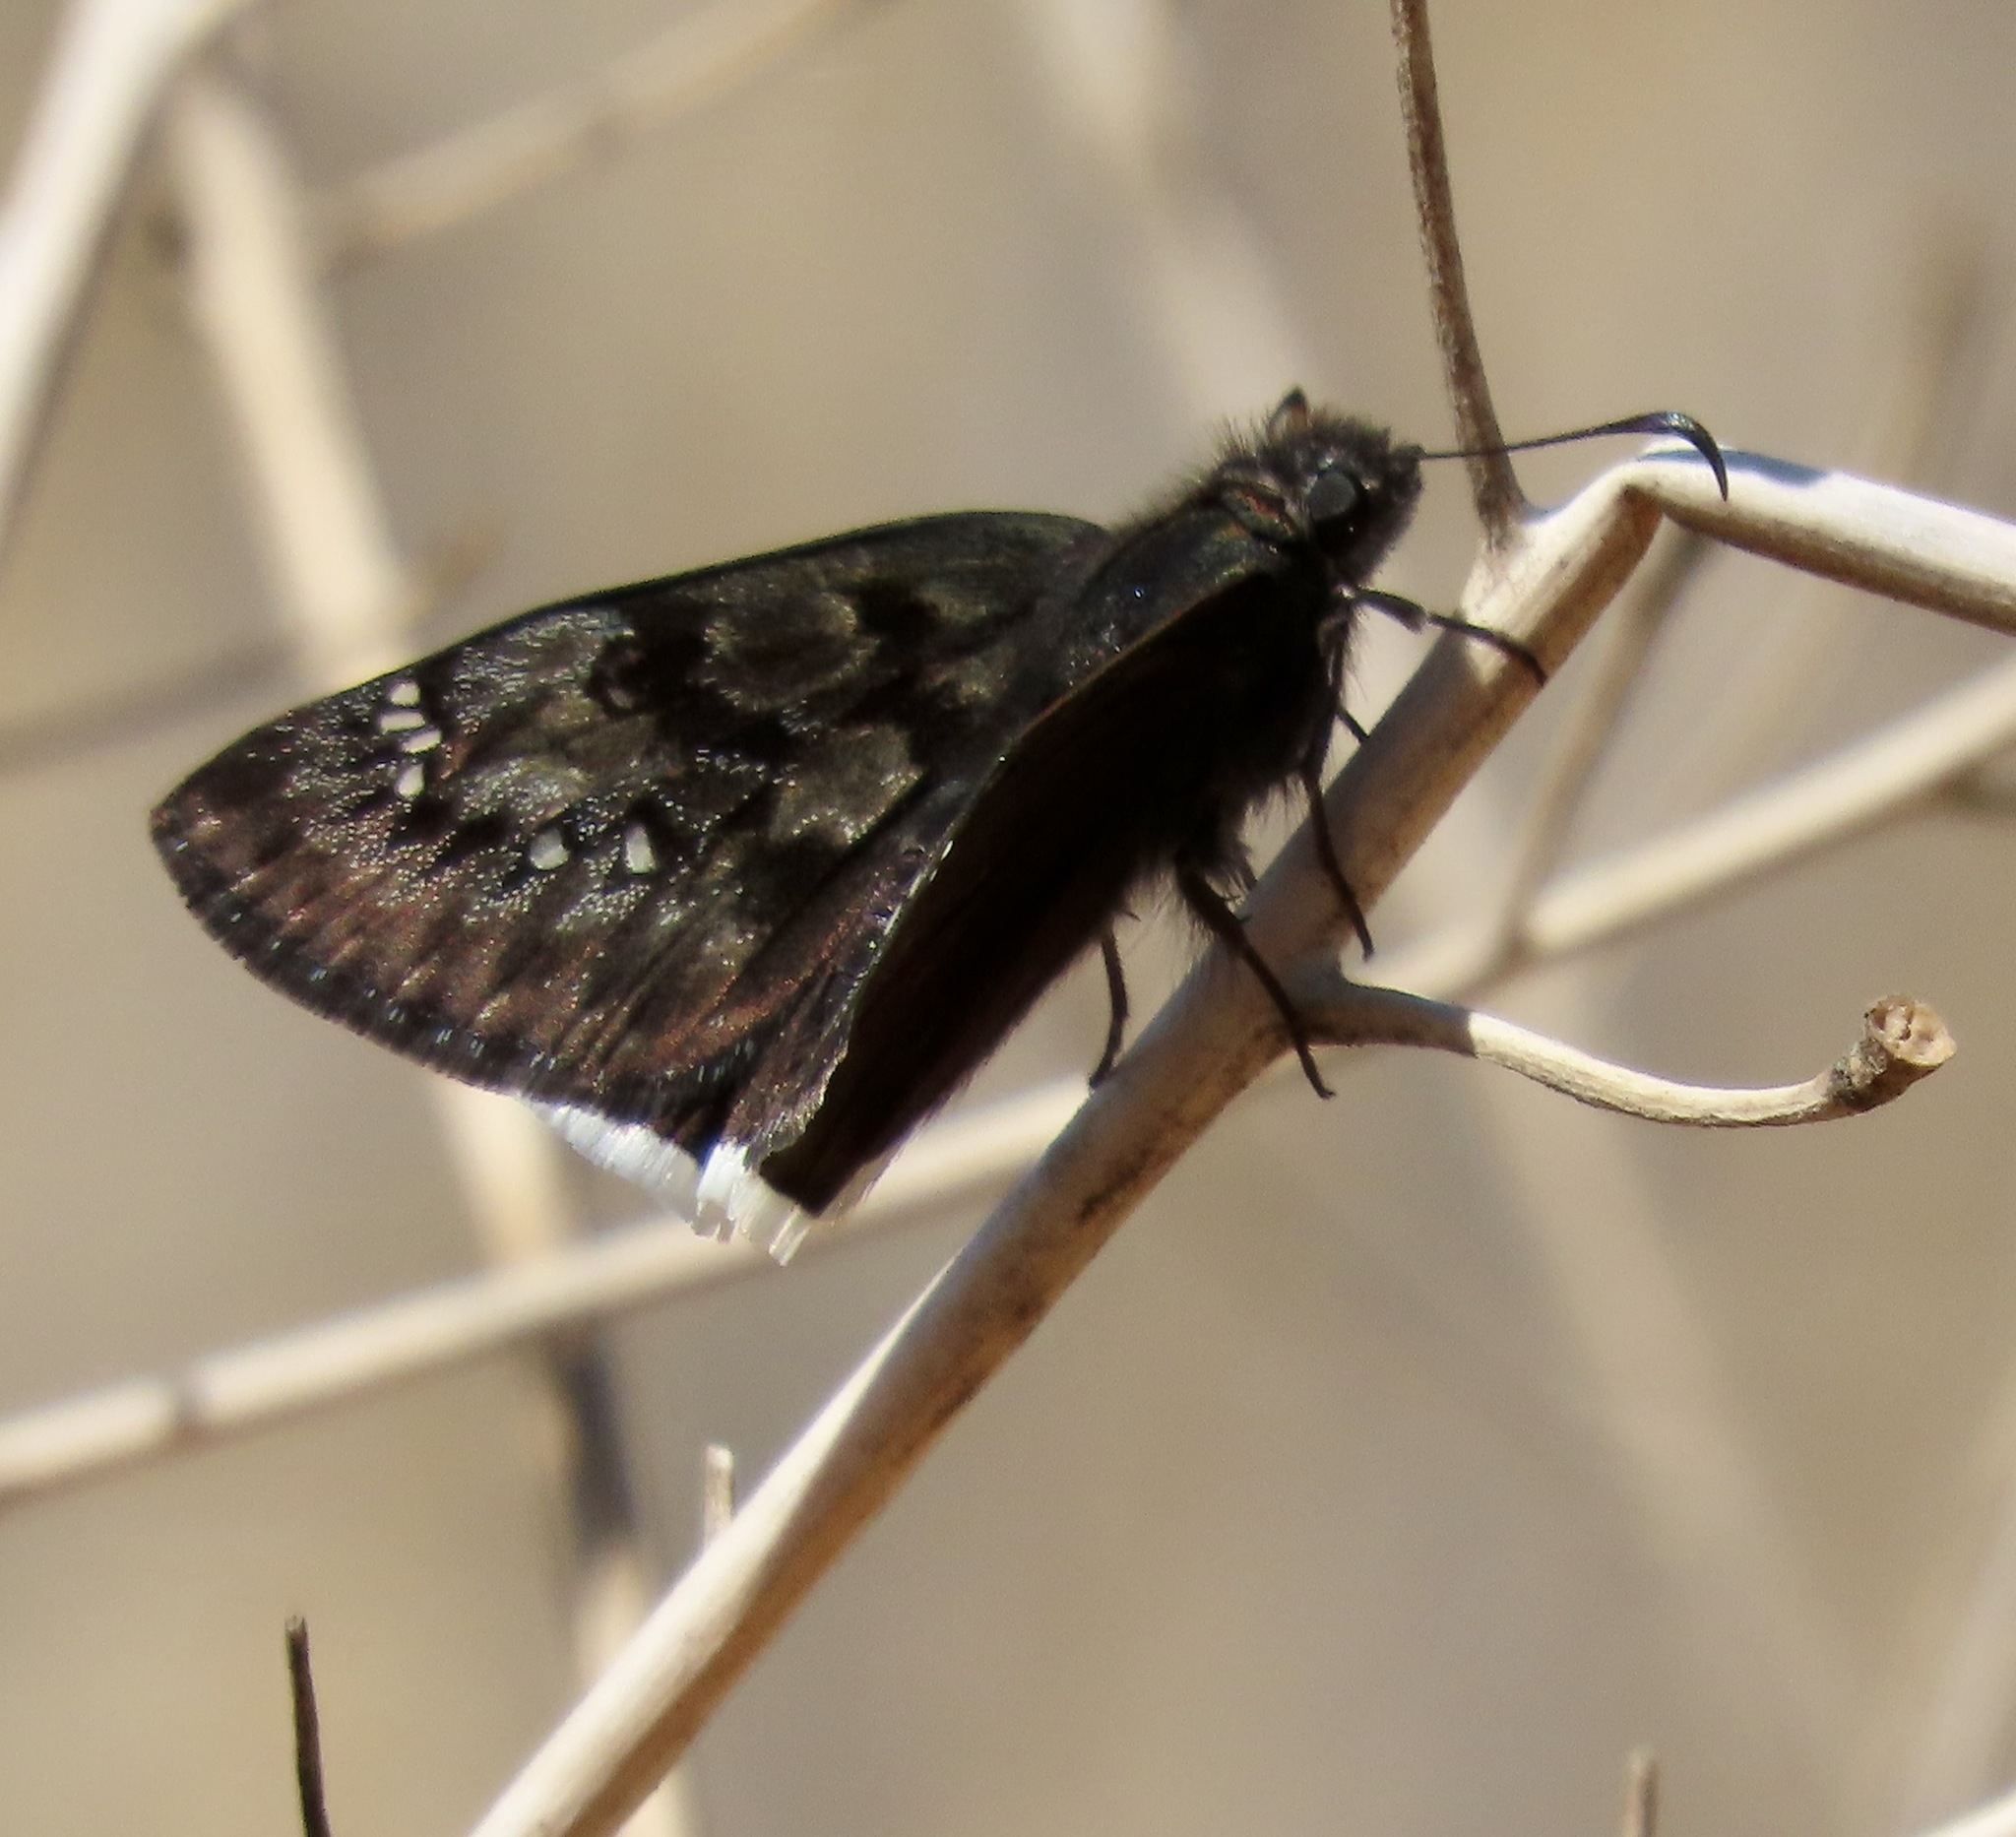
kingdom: Animalia
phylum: Arthropoda
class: Insecta
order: Lepidoptera
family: Hesperiidae
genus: Erynnis
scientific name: Erynnis tristis
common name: Mournful duskywing
